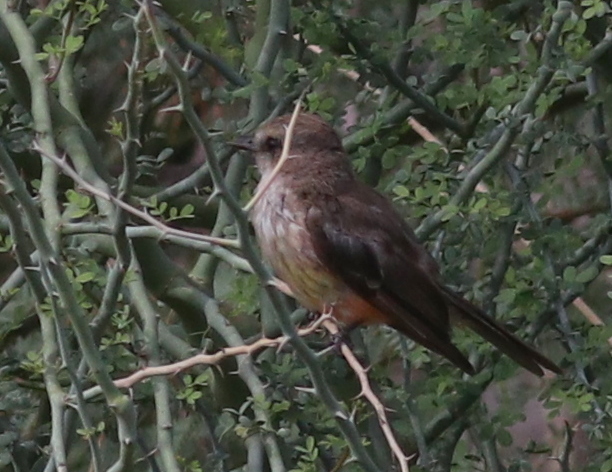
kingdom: Animalia
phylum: Chordata
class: Aves
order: Passeriformes
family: Tyrannidae
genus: Pyrocephalus
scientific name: Pyrocephalus rubinus
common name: Vermilion flycatcher
